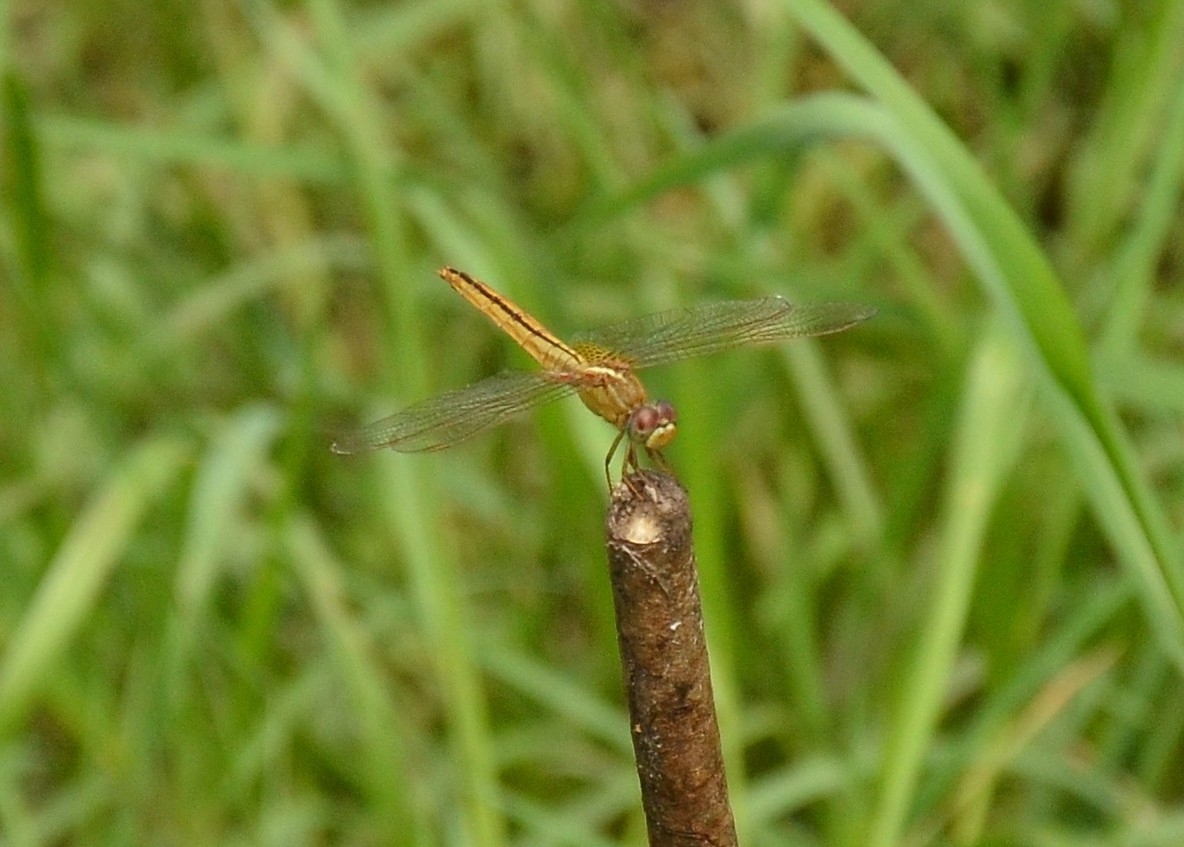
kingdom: Animalia
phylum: Arthropoda
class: Insecta
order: Odonata
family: Libellulidae
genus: Crocothemis
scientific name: Crocothemis servilia
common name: Scarlet skimmer
